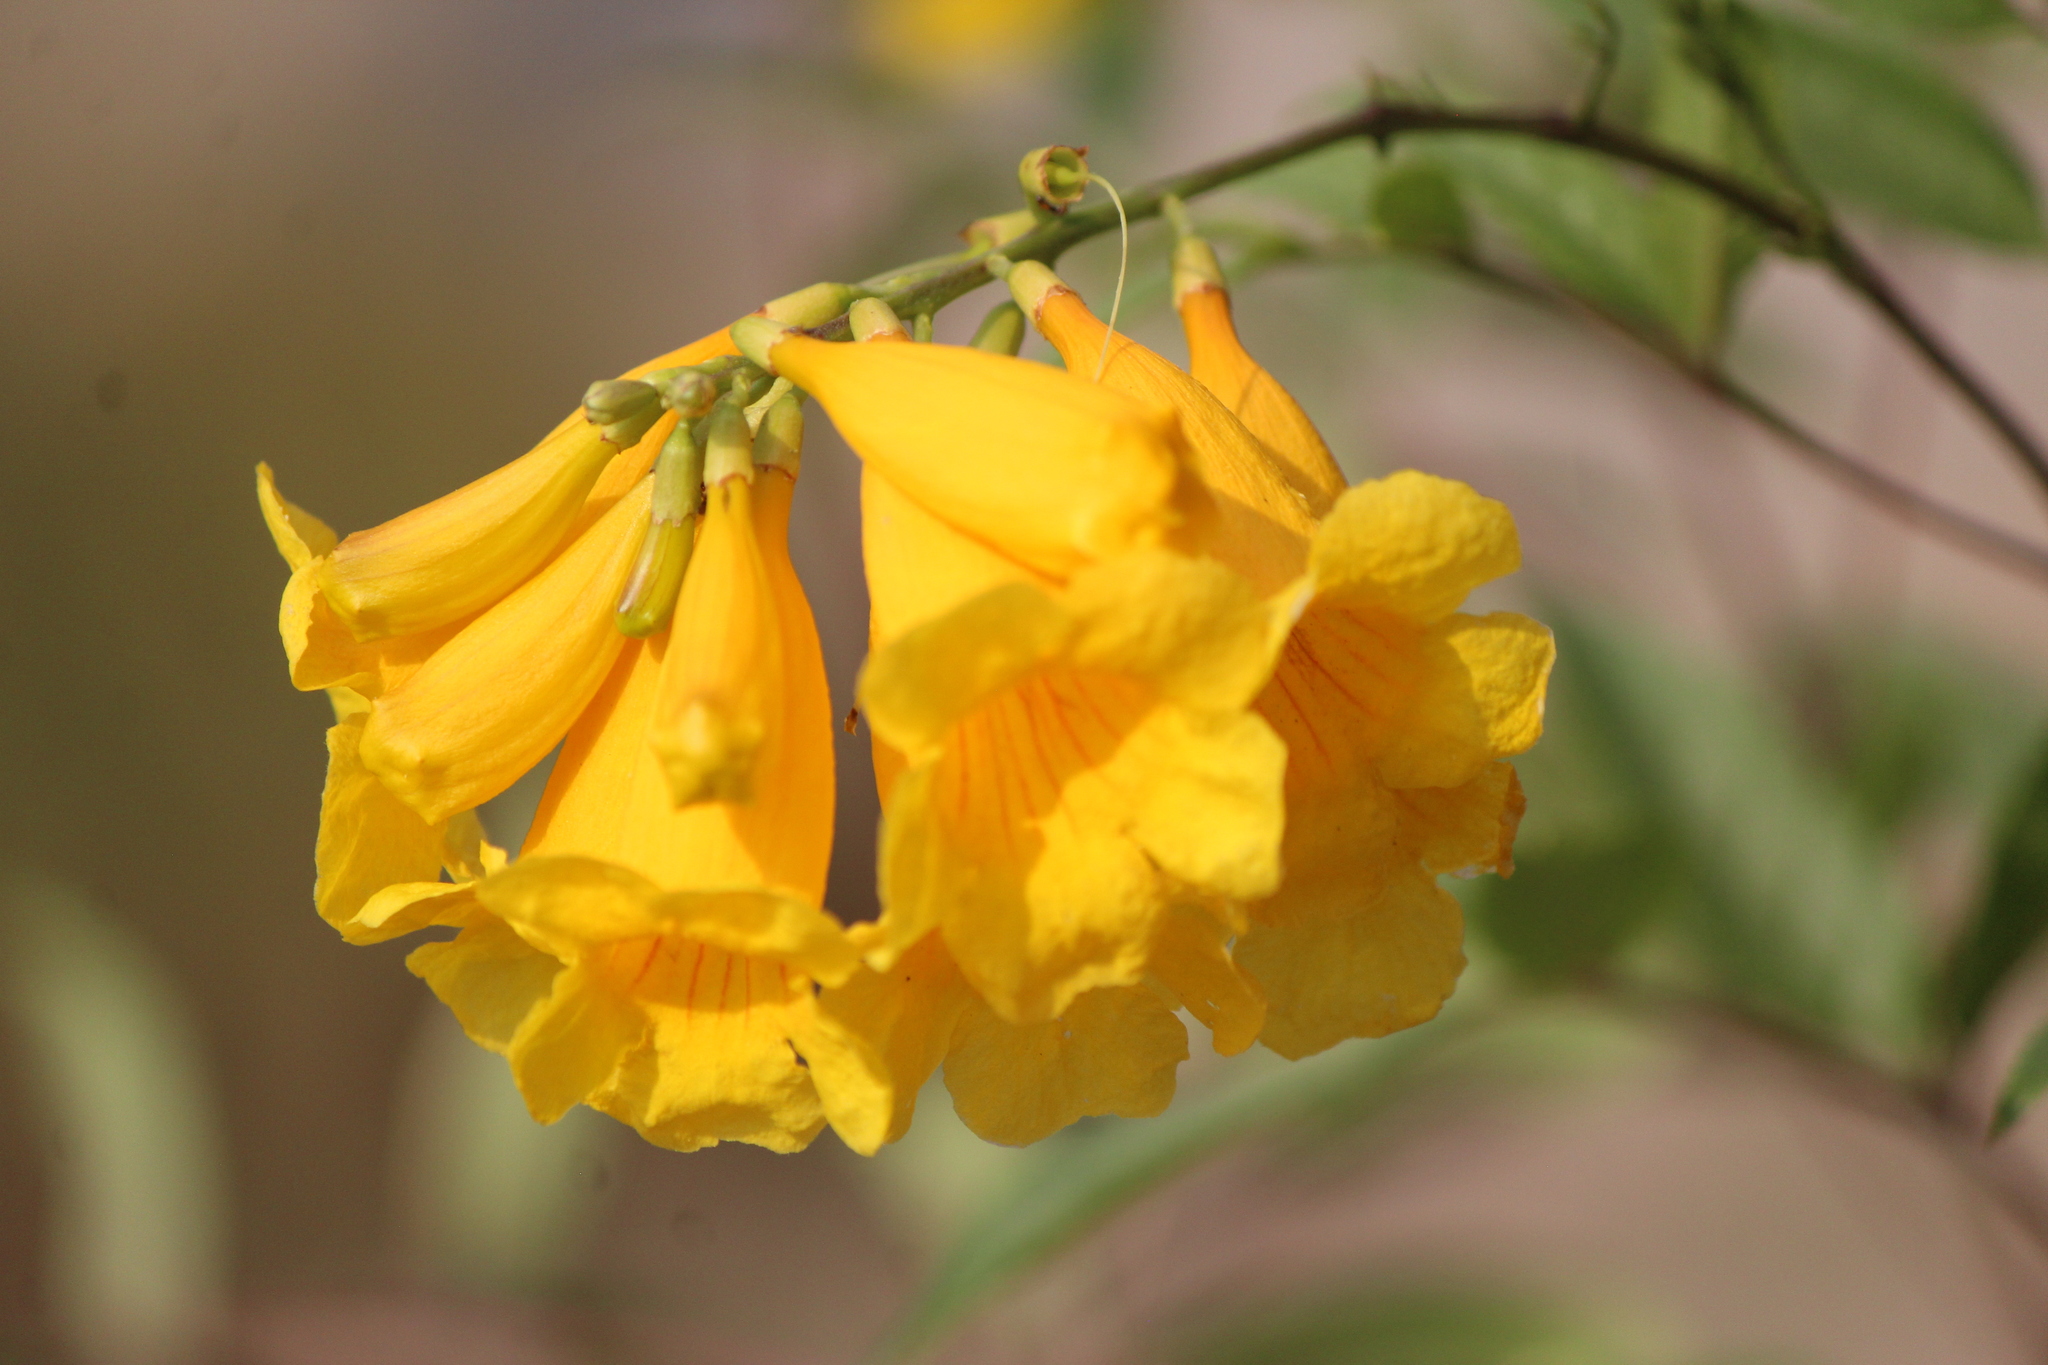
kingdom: Plantae
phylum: Tracheophyta
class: Magnoliopsida
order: Lamiales
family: Bignoniaceae
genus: Tecoma
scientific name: Tecoma stans
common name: Yellow trumpetbush
